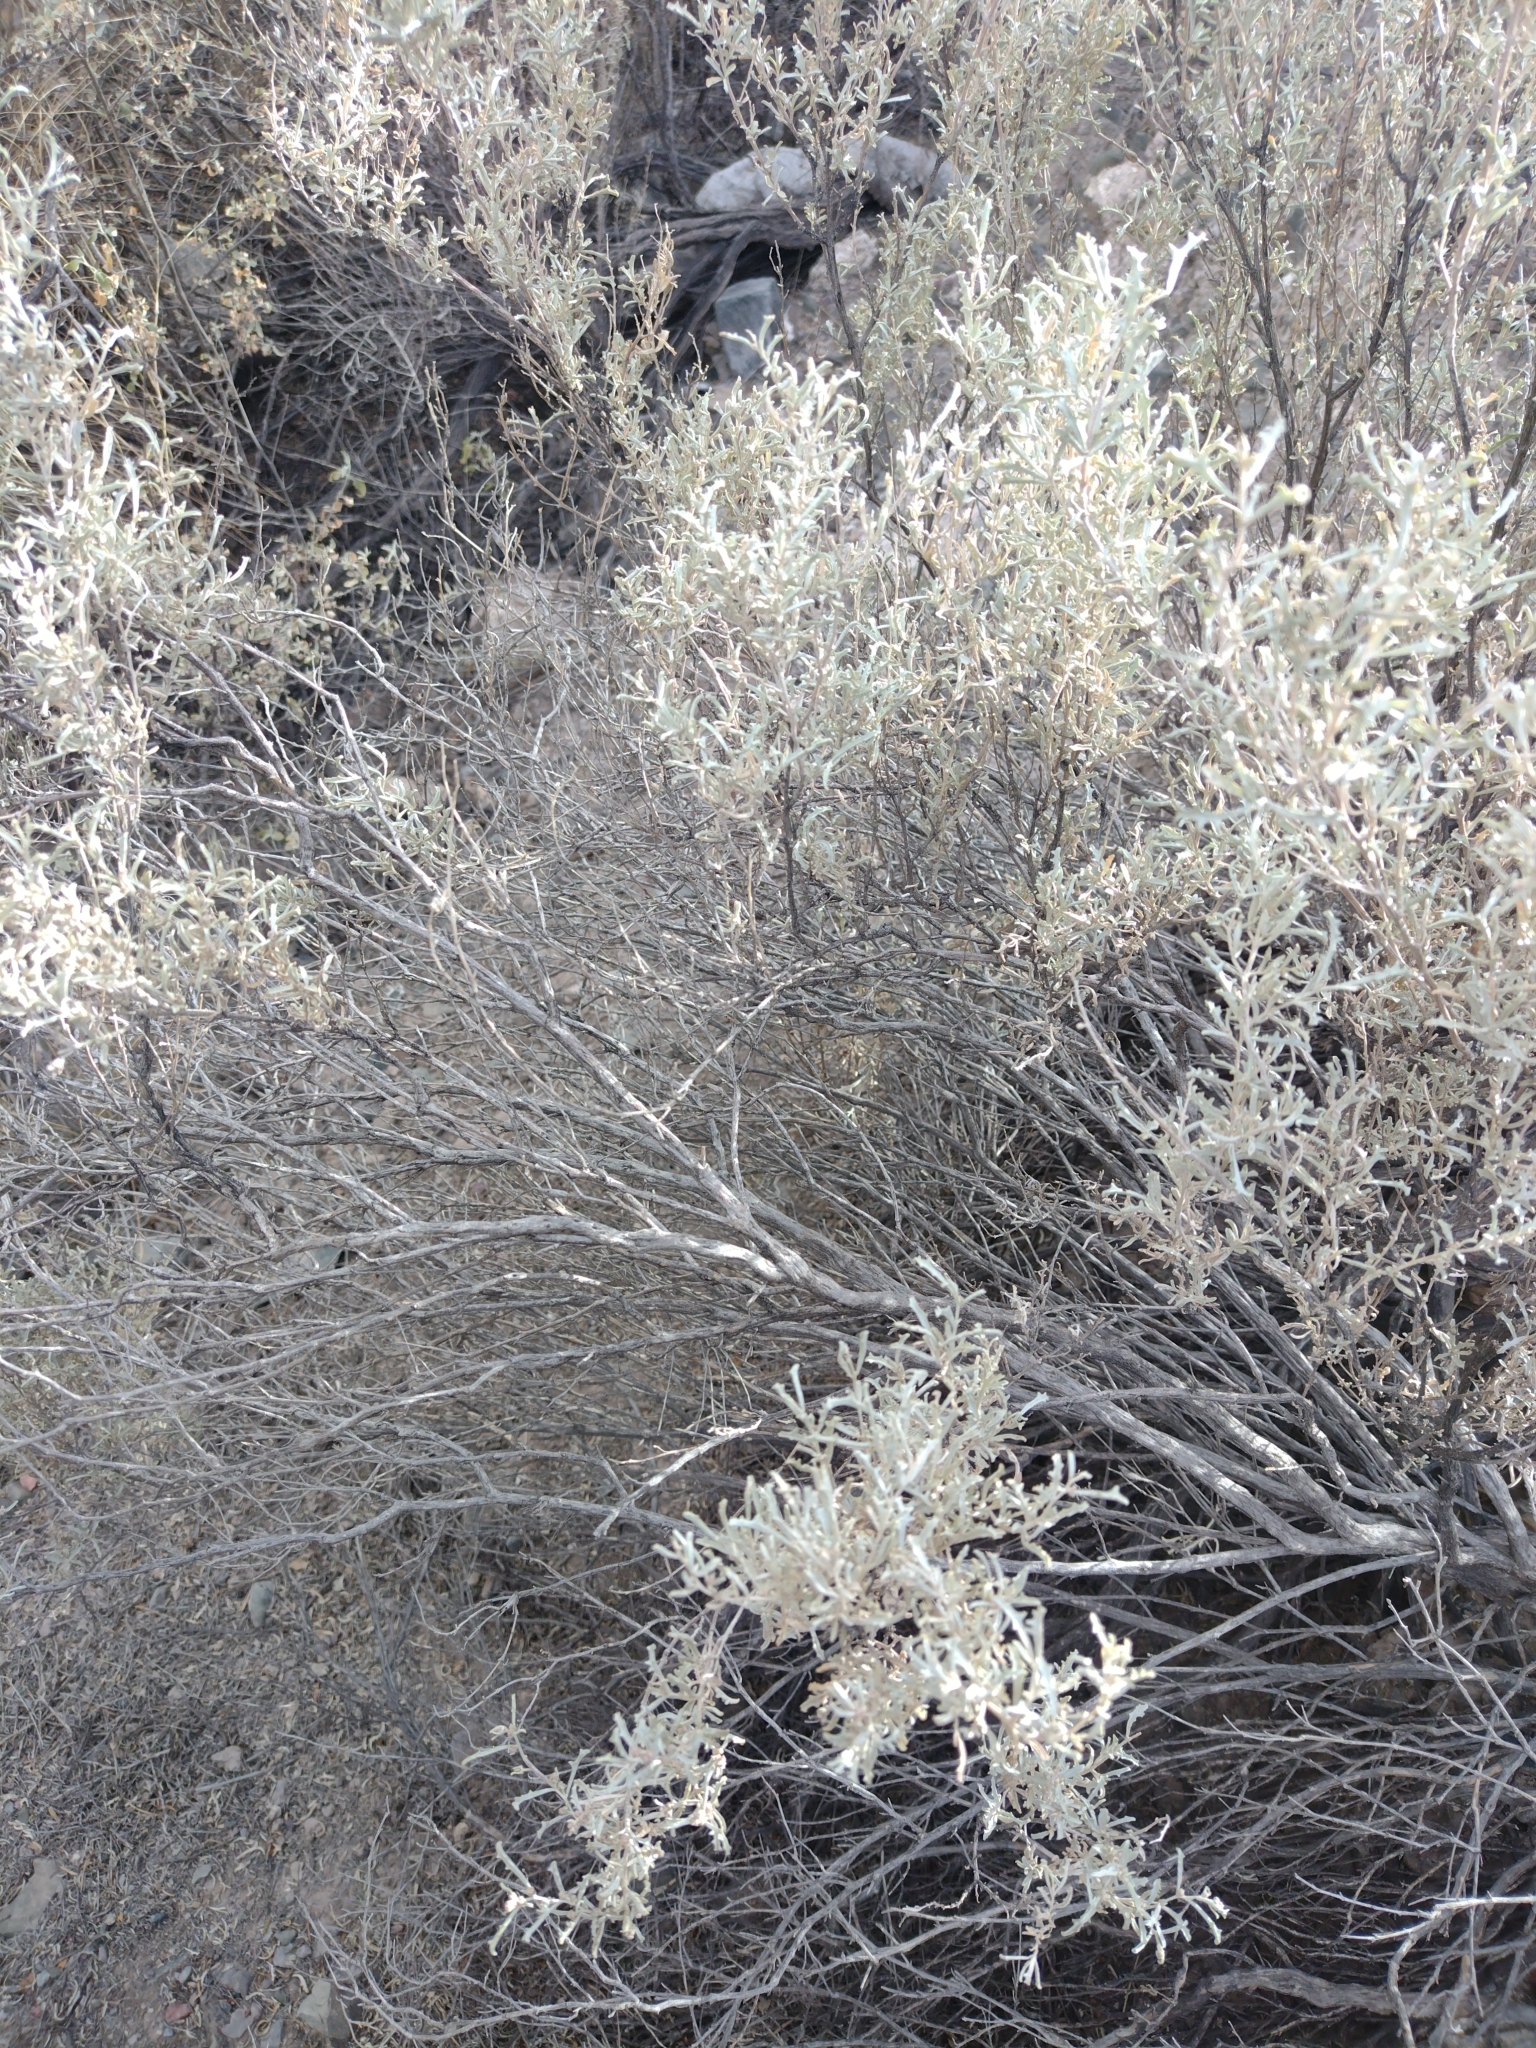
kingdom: Plantae
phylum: Tracheophyta
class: Magnoliopsida
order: Caryophyllales
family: Amaranthaceae
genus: Atriplex
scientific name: Atriplex lampa
